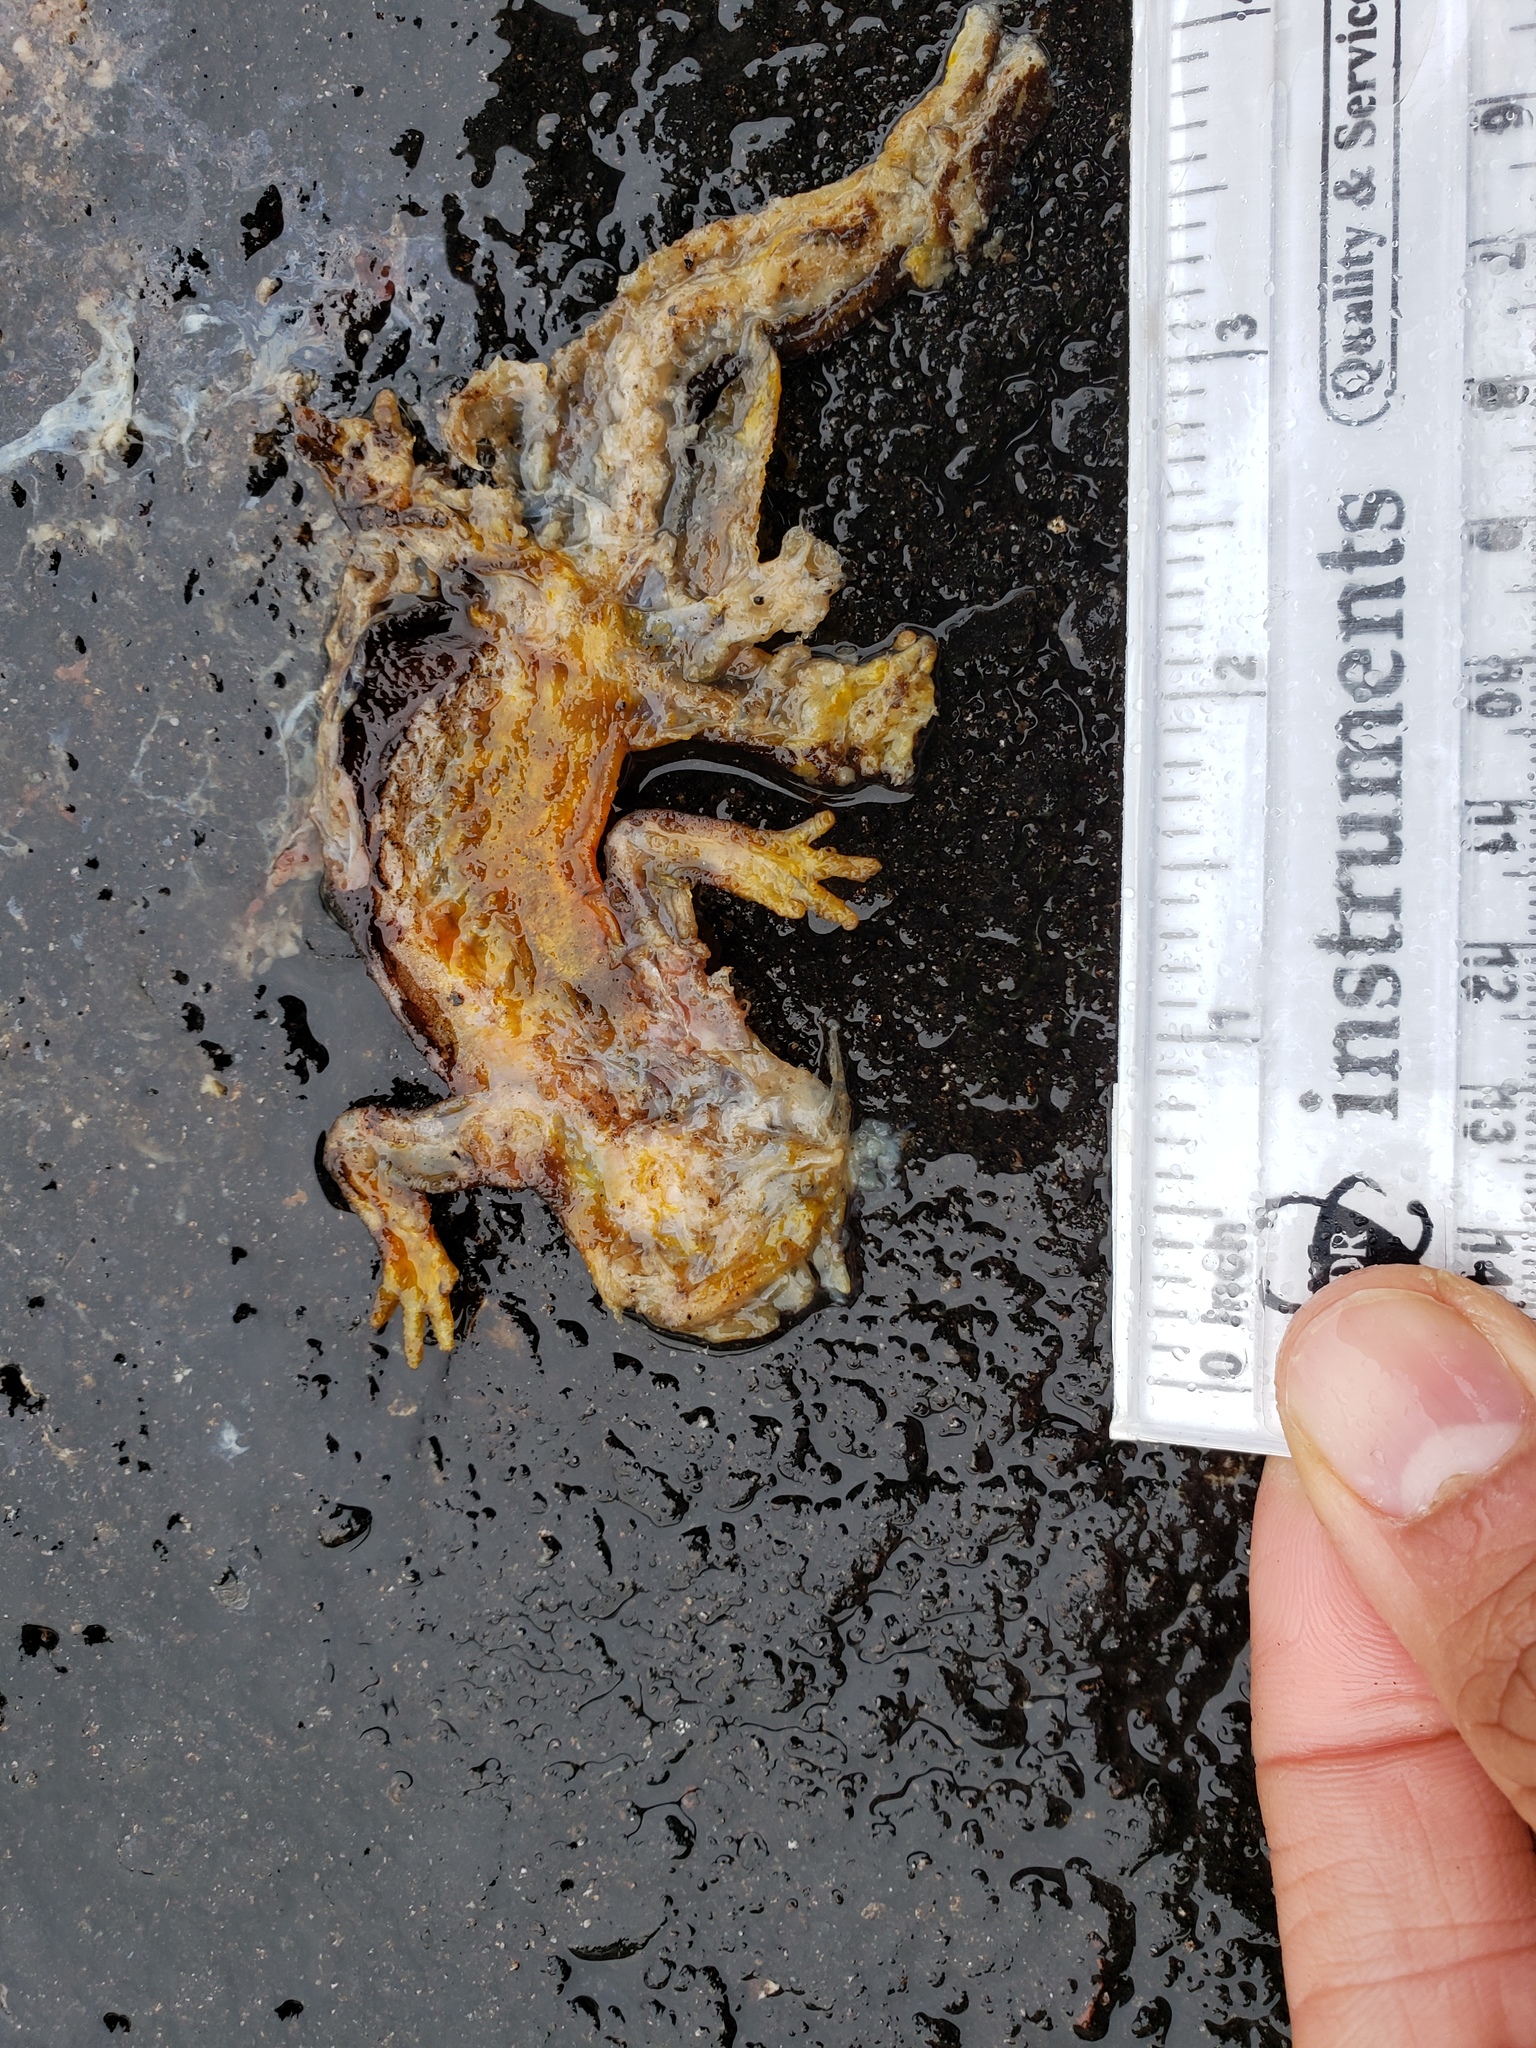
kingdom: Animalia
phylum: Chordata
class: Amphibia
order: Caudata
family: Salamandridae
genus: Taricha
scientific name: Taricha
